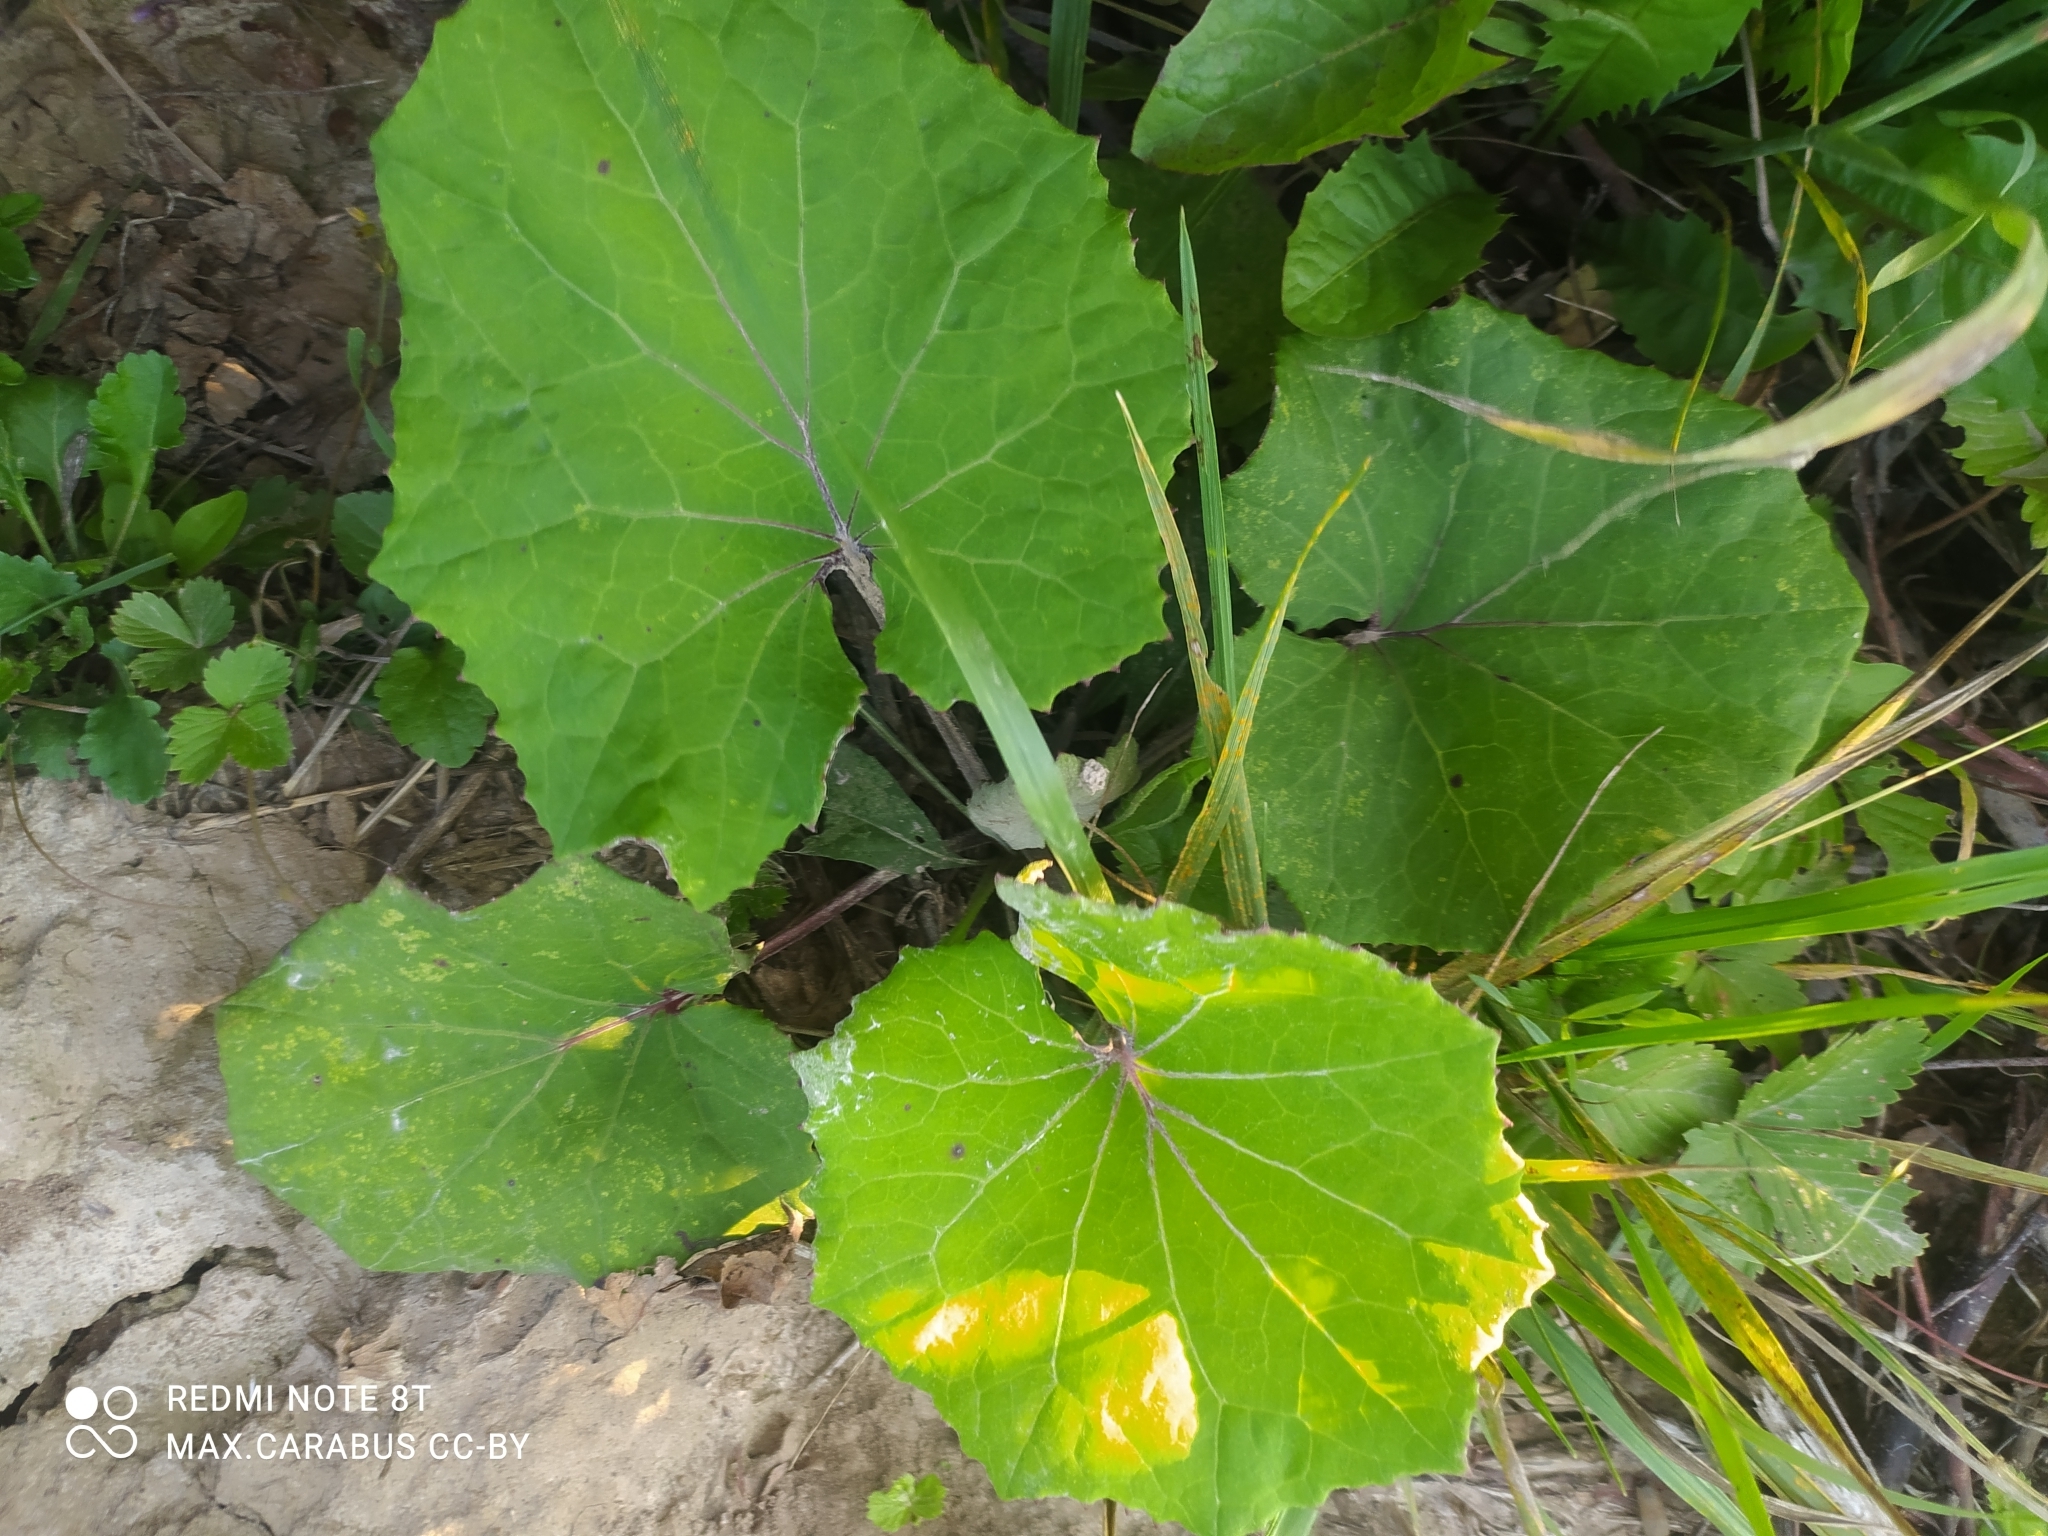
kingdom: Plantae
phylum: Tracheophyta
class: Magnoliopsida
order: Asterales
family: Asteraceae
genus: Tussilago
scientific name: Tussilago farfara
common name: Coltsfoot
